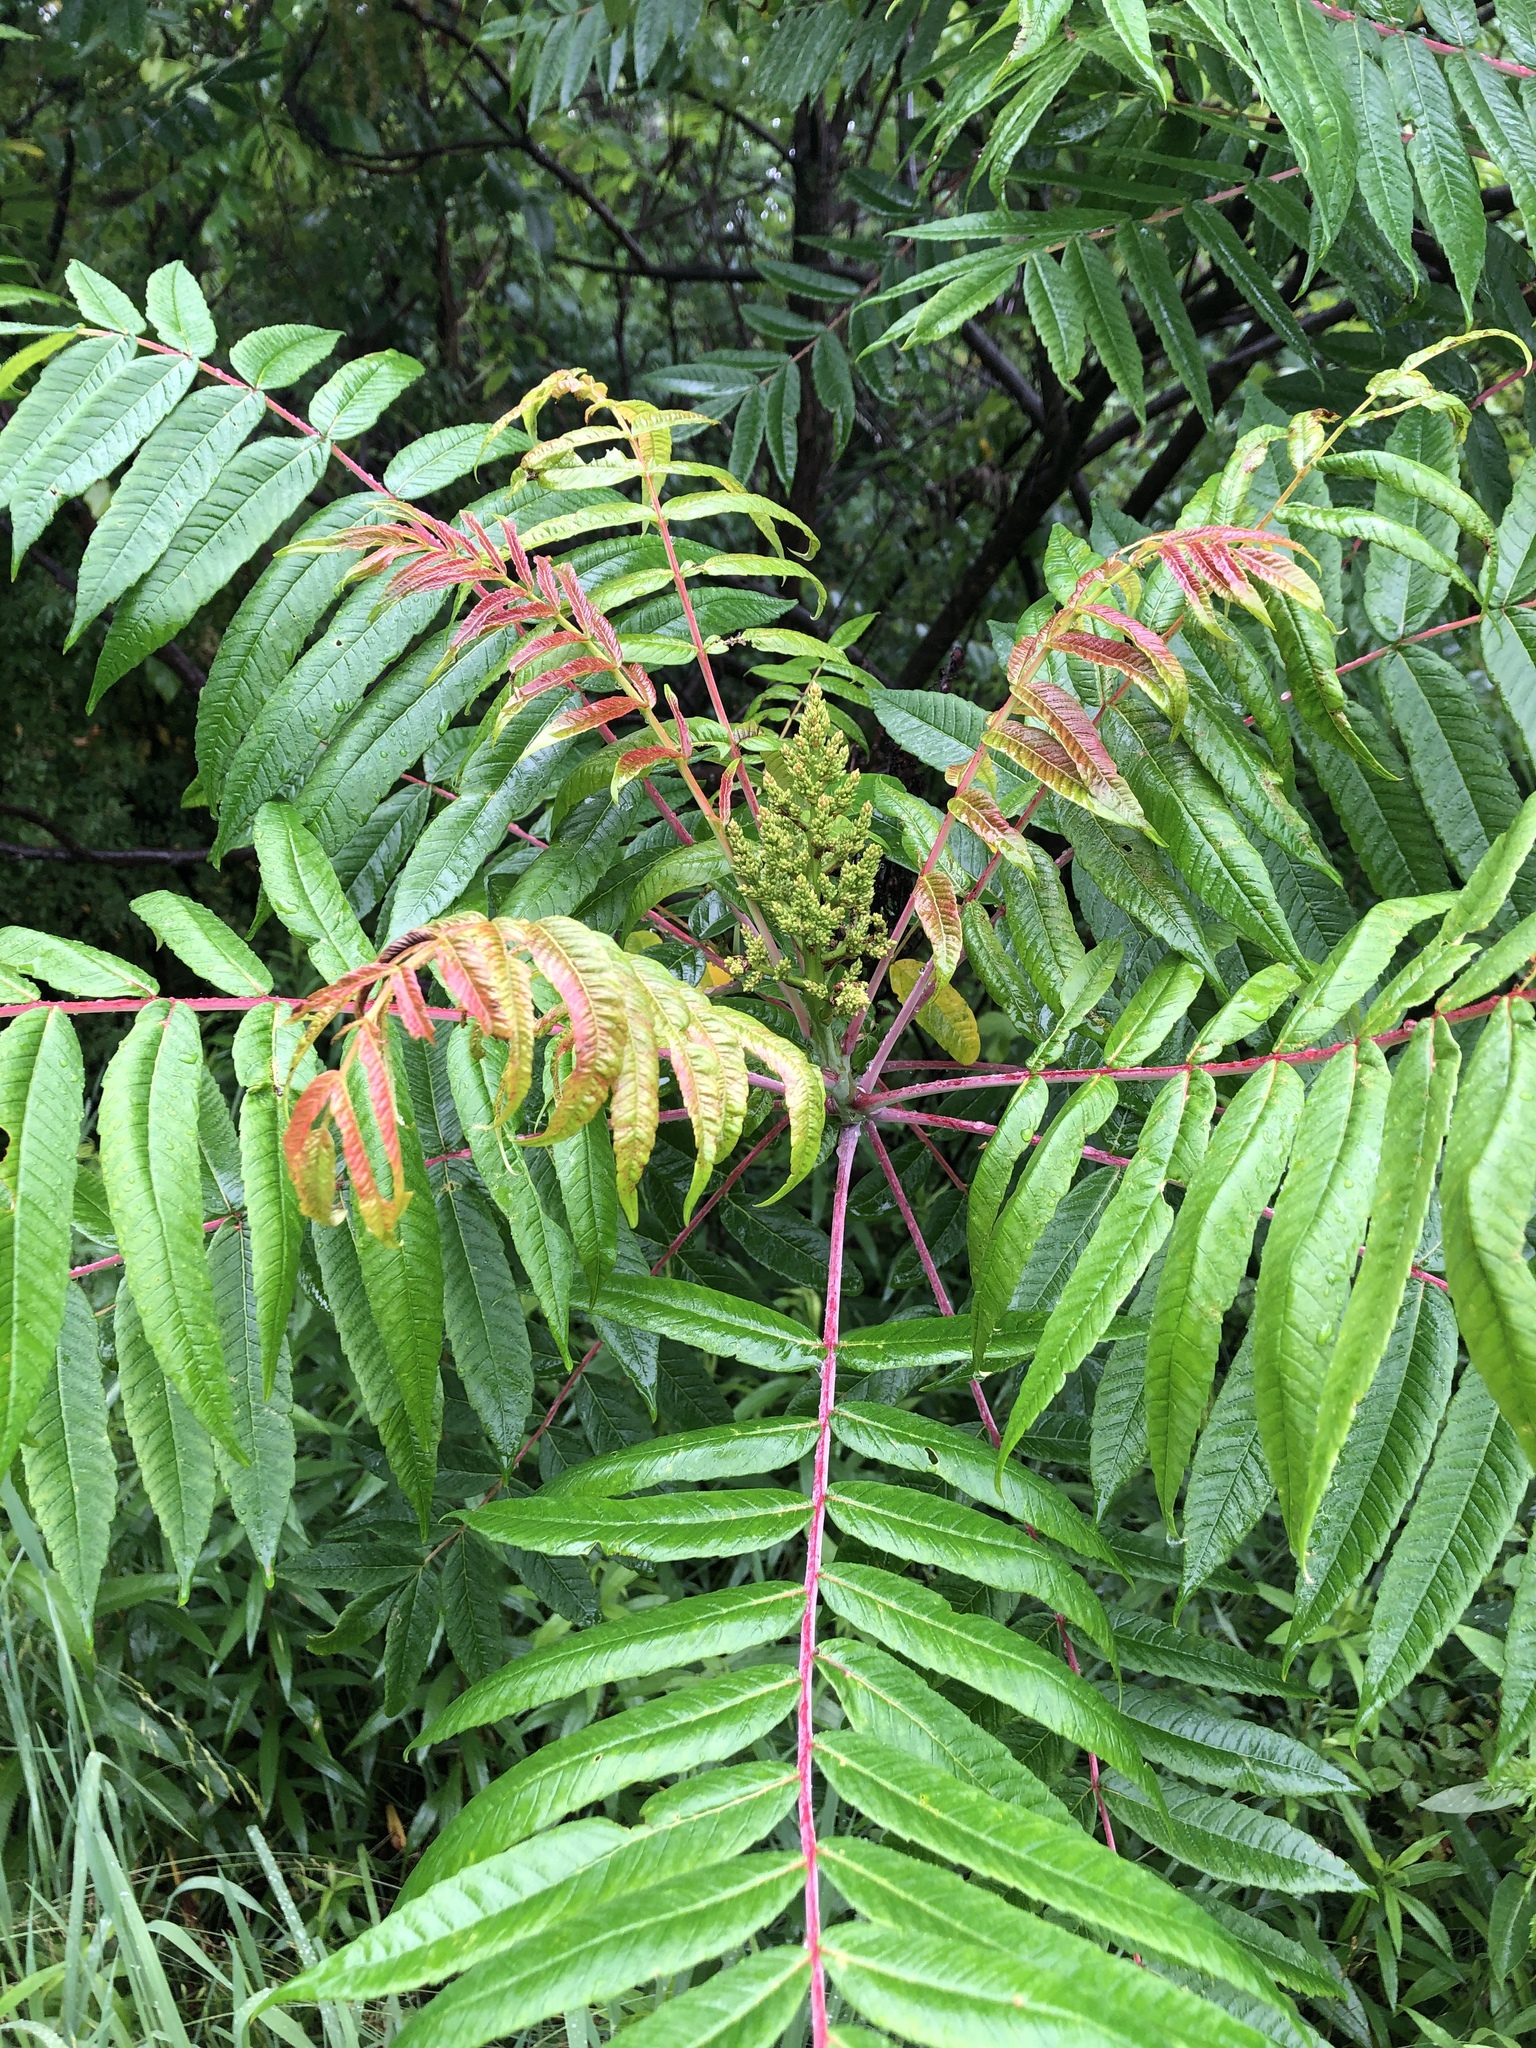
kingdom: Plantae
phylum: Tracheophyta
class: Magnoliopsida
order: Sapindales
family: Anacardiaceae
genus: Rhus
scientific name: Rhus glabra
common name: Scarlet sumac
